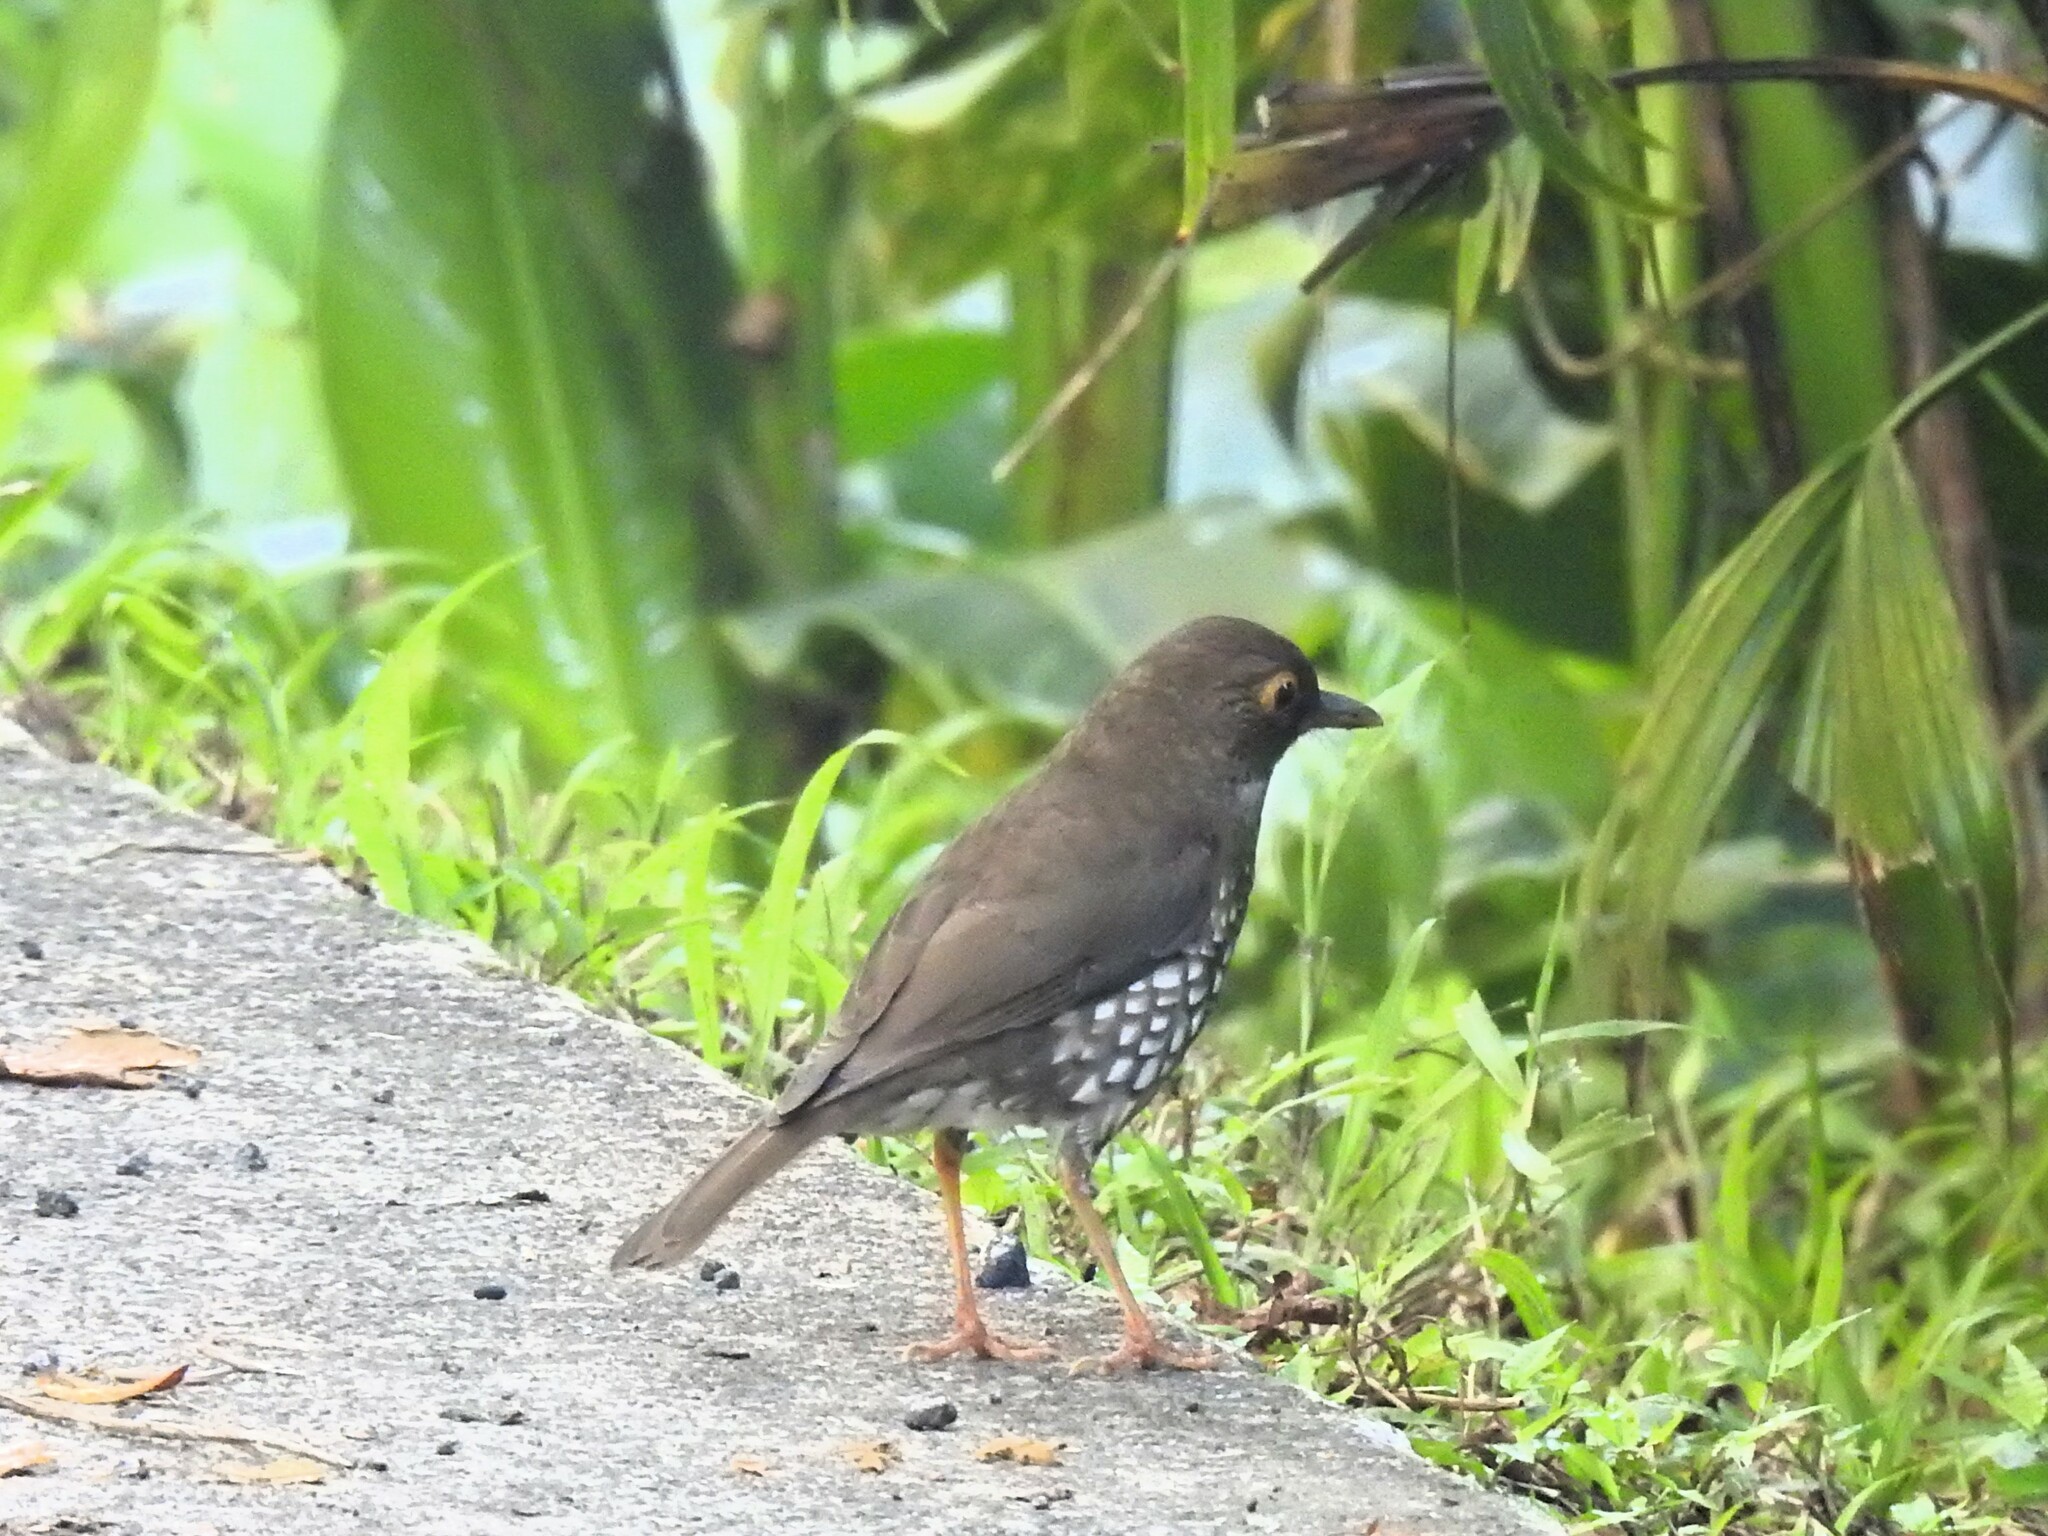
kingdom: Animalia
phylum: Chordata
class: Aves
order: Passeriformes
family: Turdidae
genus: Turdus
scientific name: Turdus lherminieri
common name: Forest thrush
